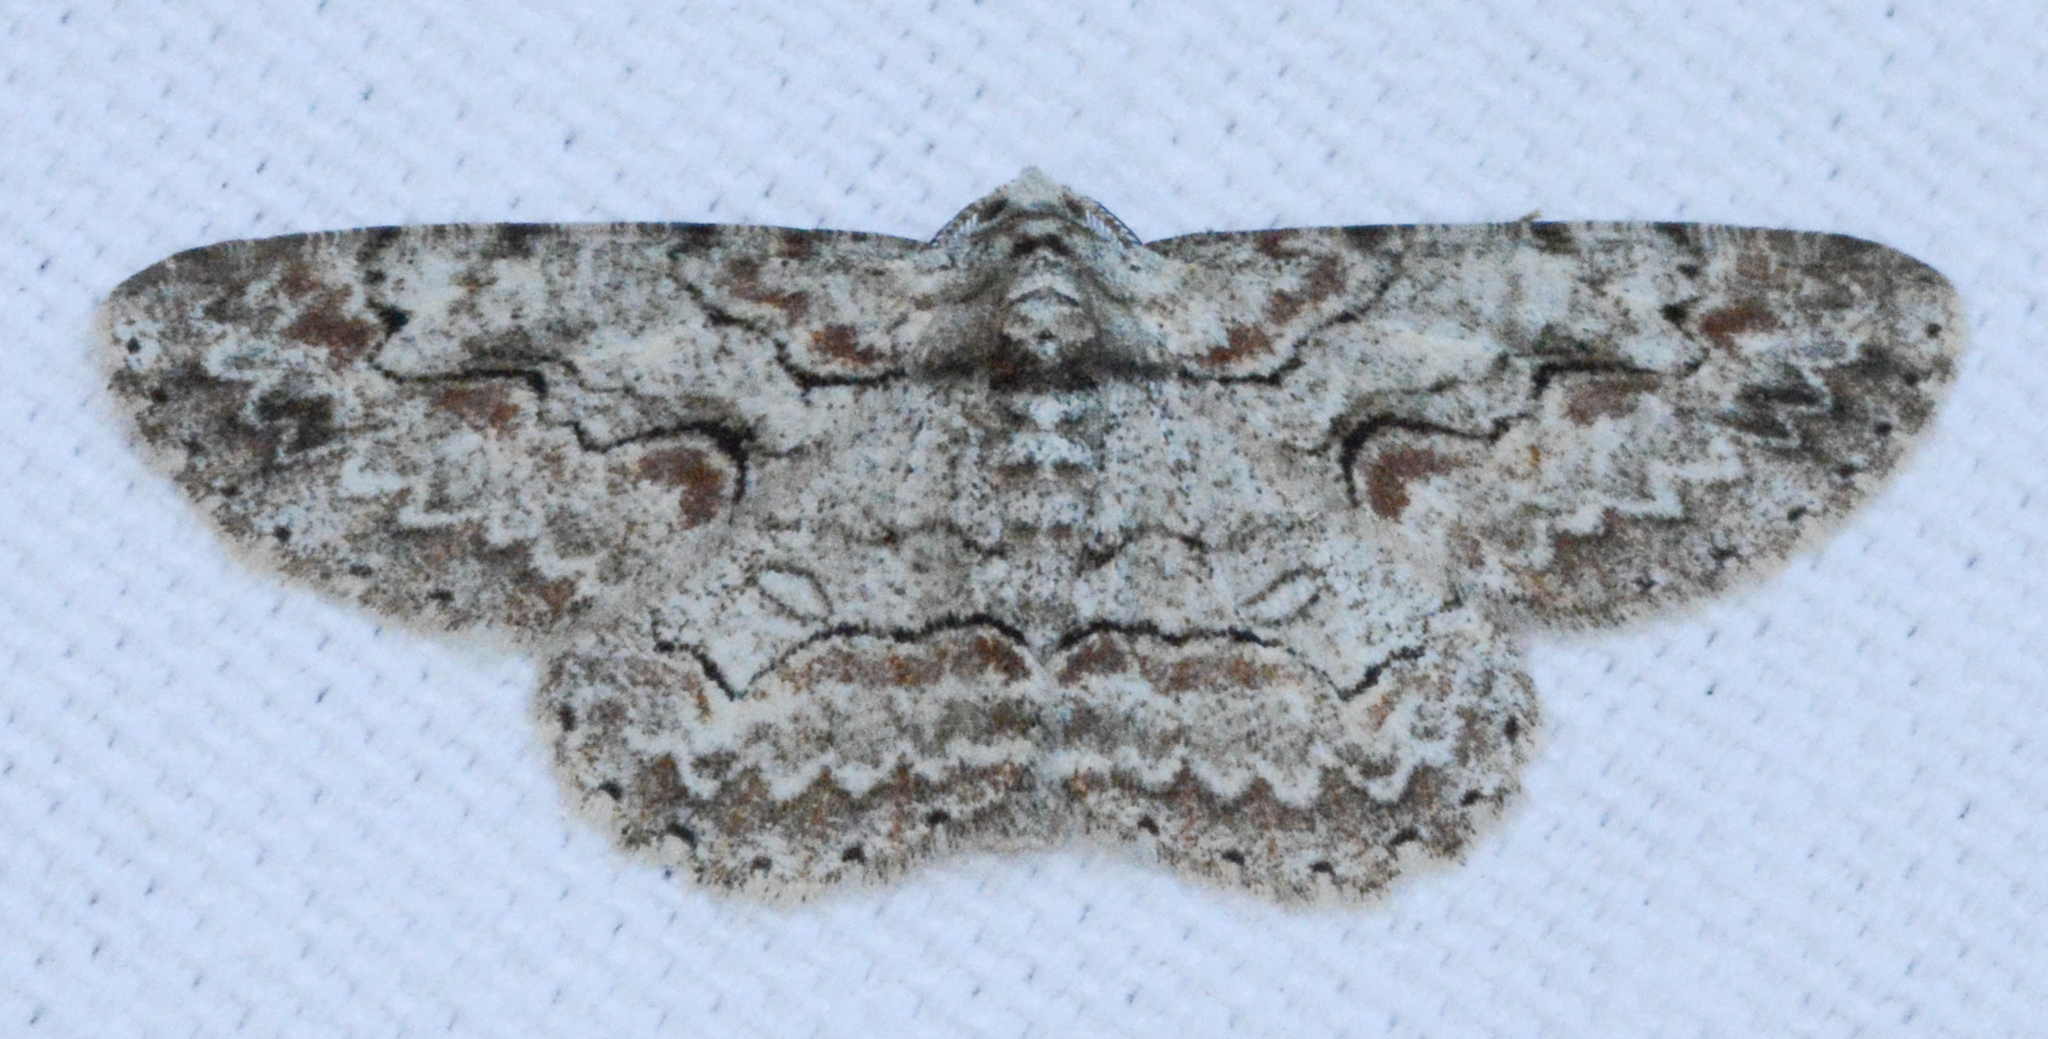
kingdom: Animalia
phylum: Arthropoda
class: Insecta
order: Lepidoptera
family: Geometridae
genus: Iridopsis
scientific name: Iridopsis defectaria
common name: Brown-shaded gray
